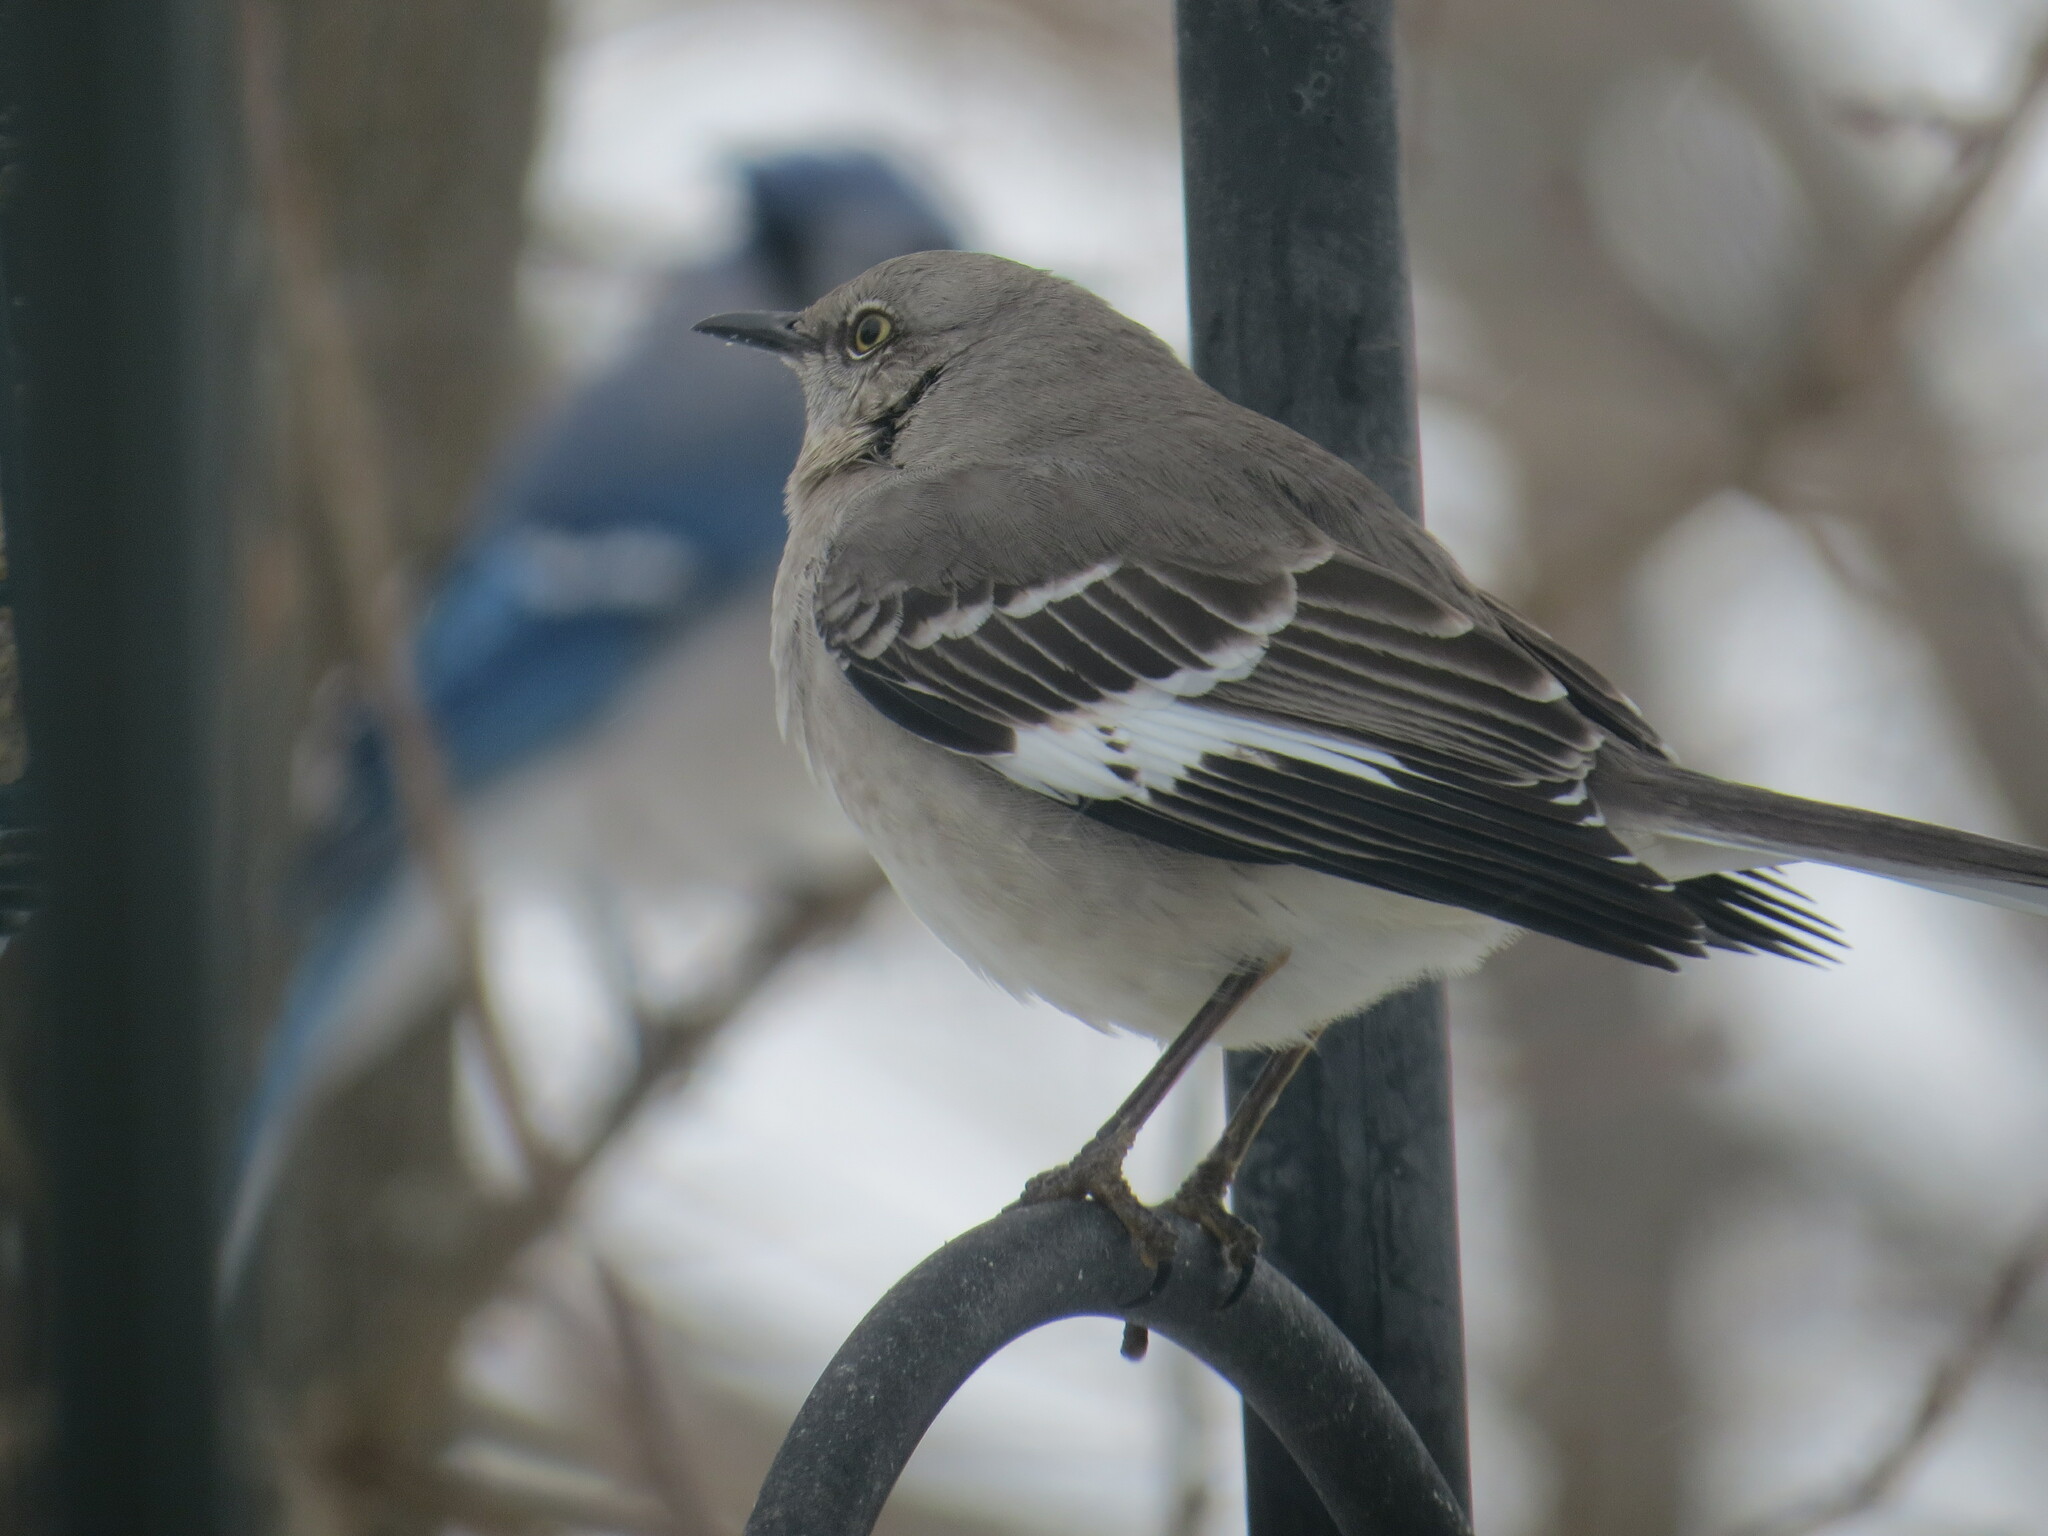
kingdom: Animalia
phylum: Chordata
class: Aves
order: Passeriformes
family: Mimidae
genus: Mimus
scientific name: Mimus polyglottos
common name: Northern mockingbird
